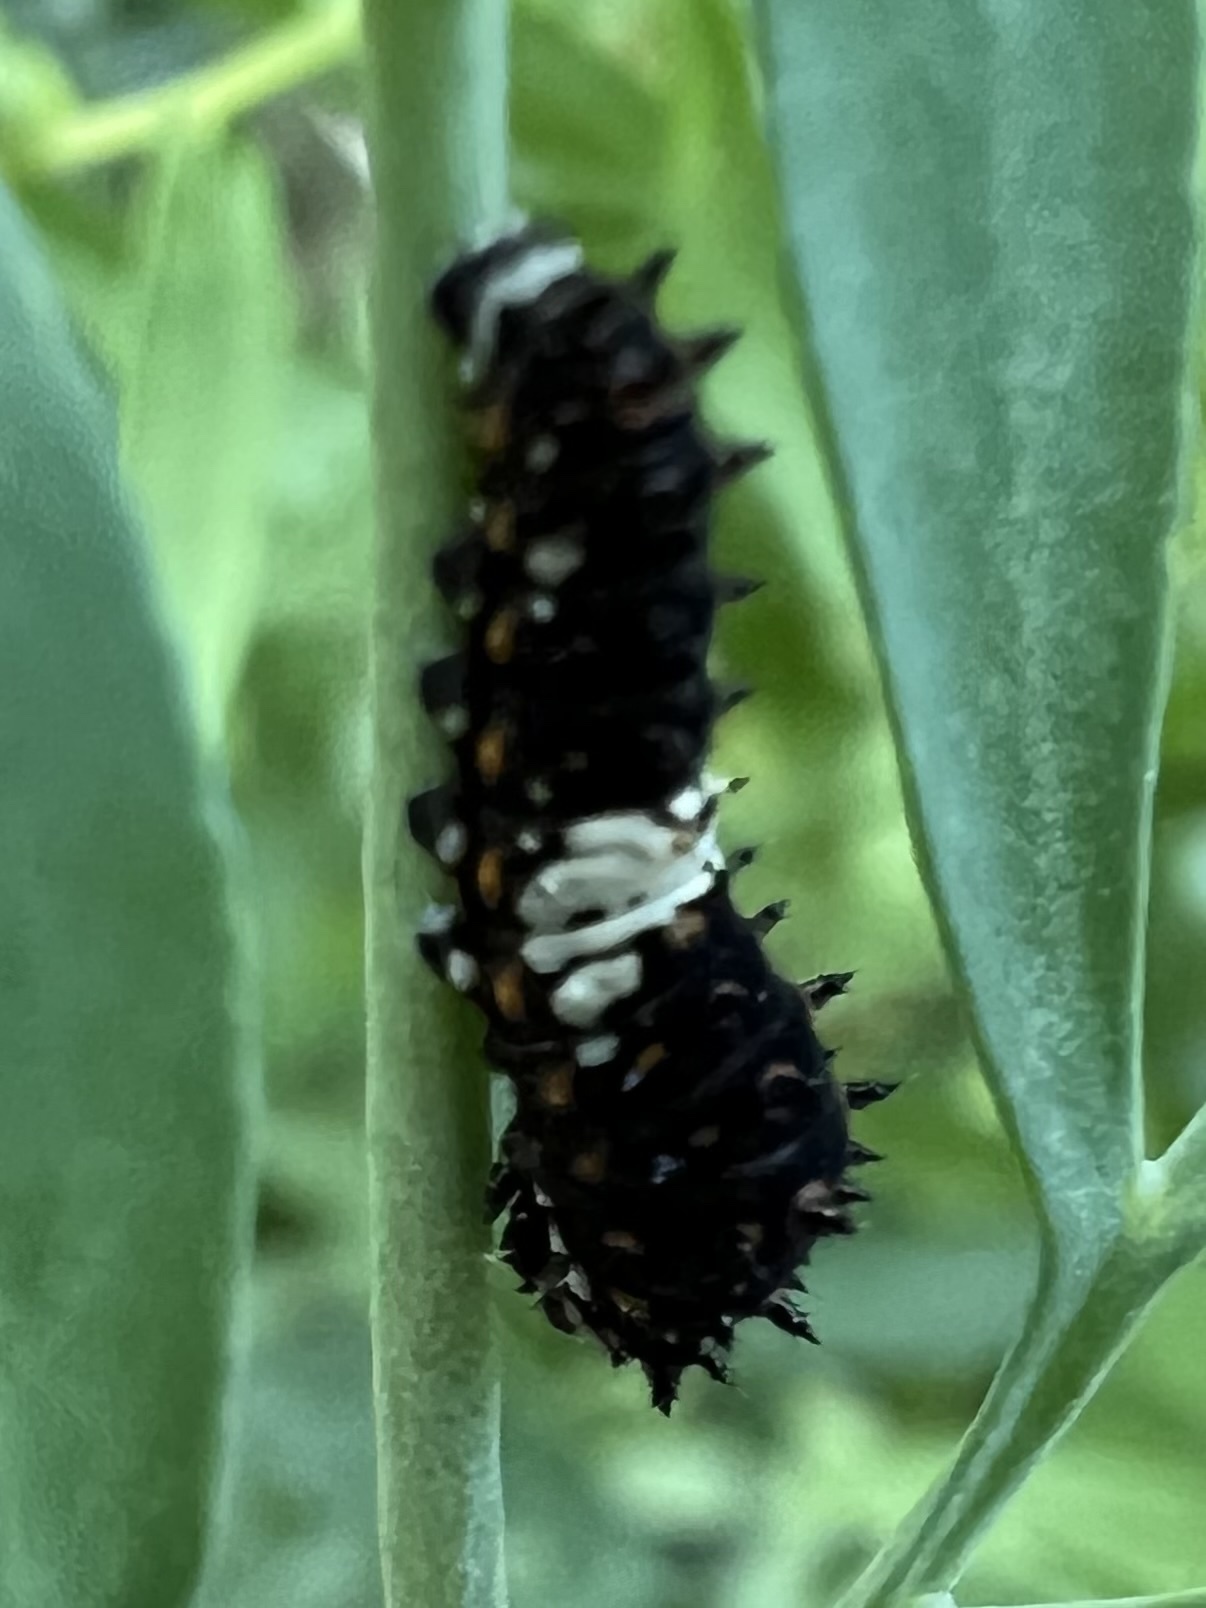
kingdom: Animalia
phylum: Arthropoda
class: Insecta
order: Lepidoptera
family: Papilionidae
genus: Papilio
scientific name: Papilio polyxenes
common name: Black swallowtail
